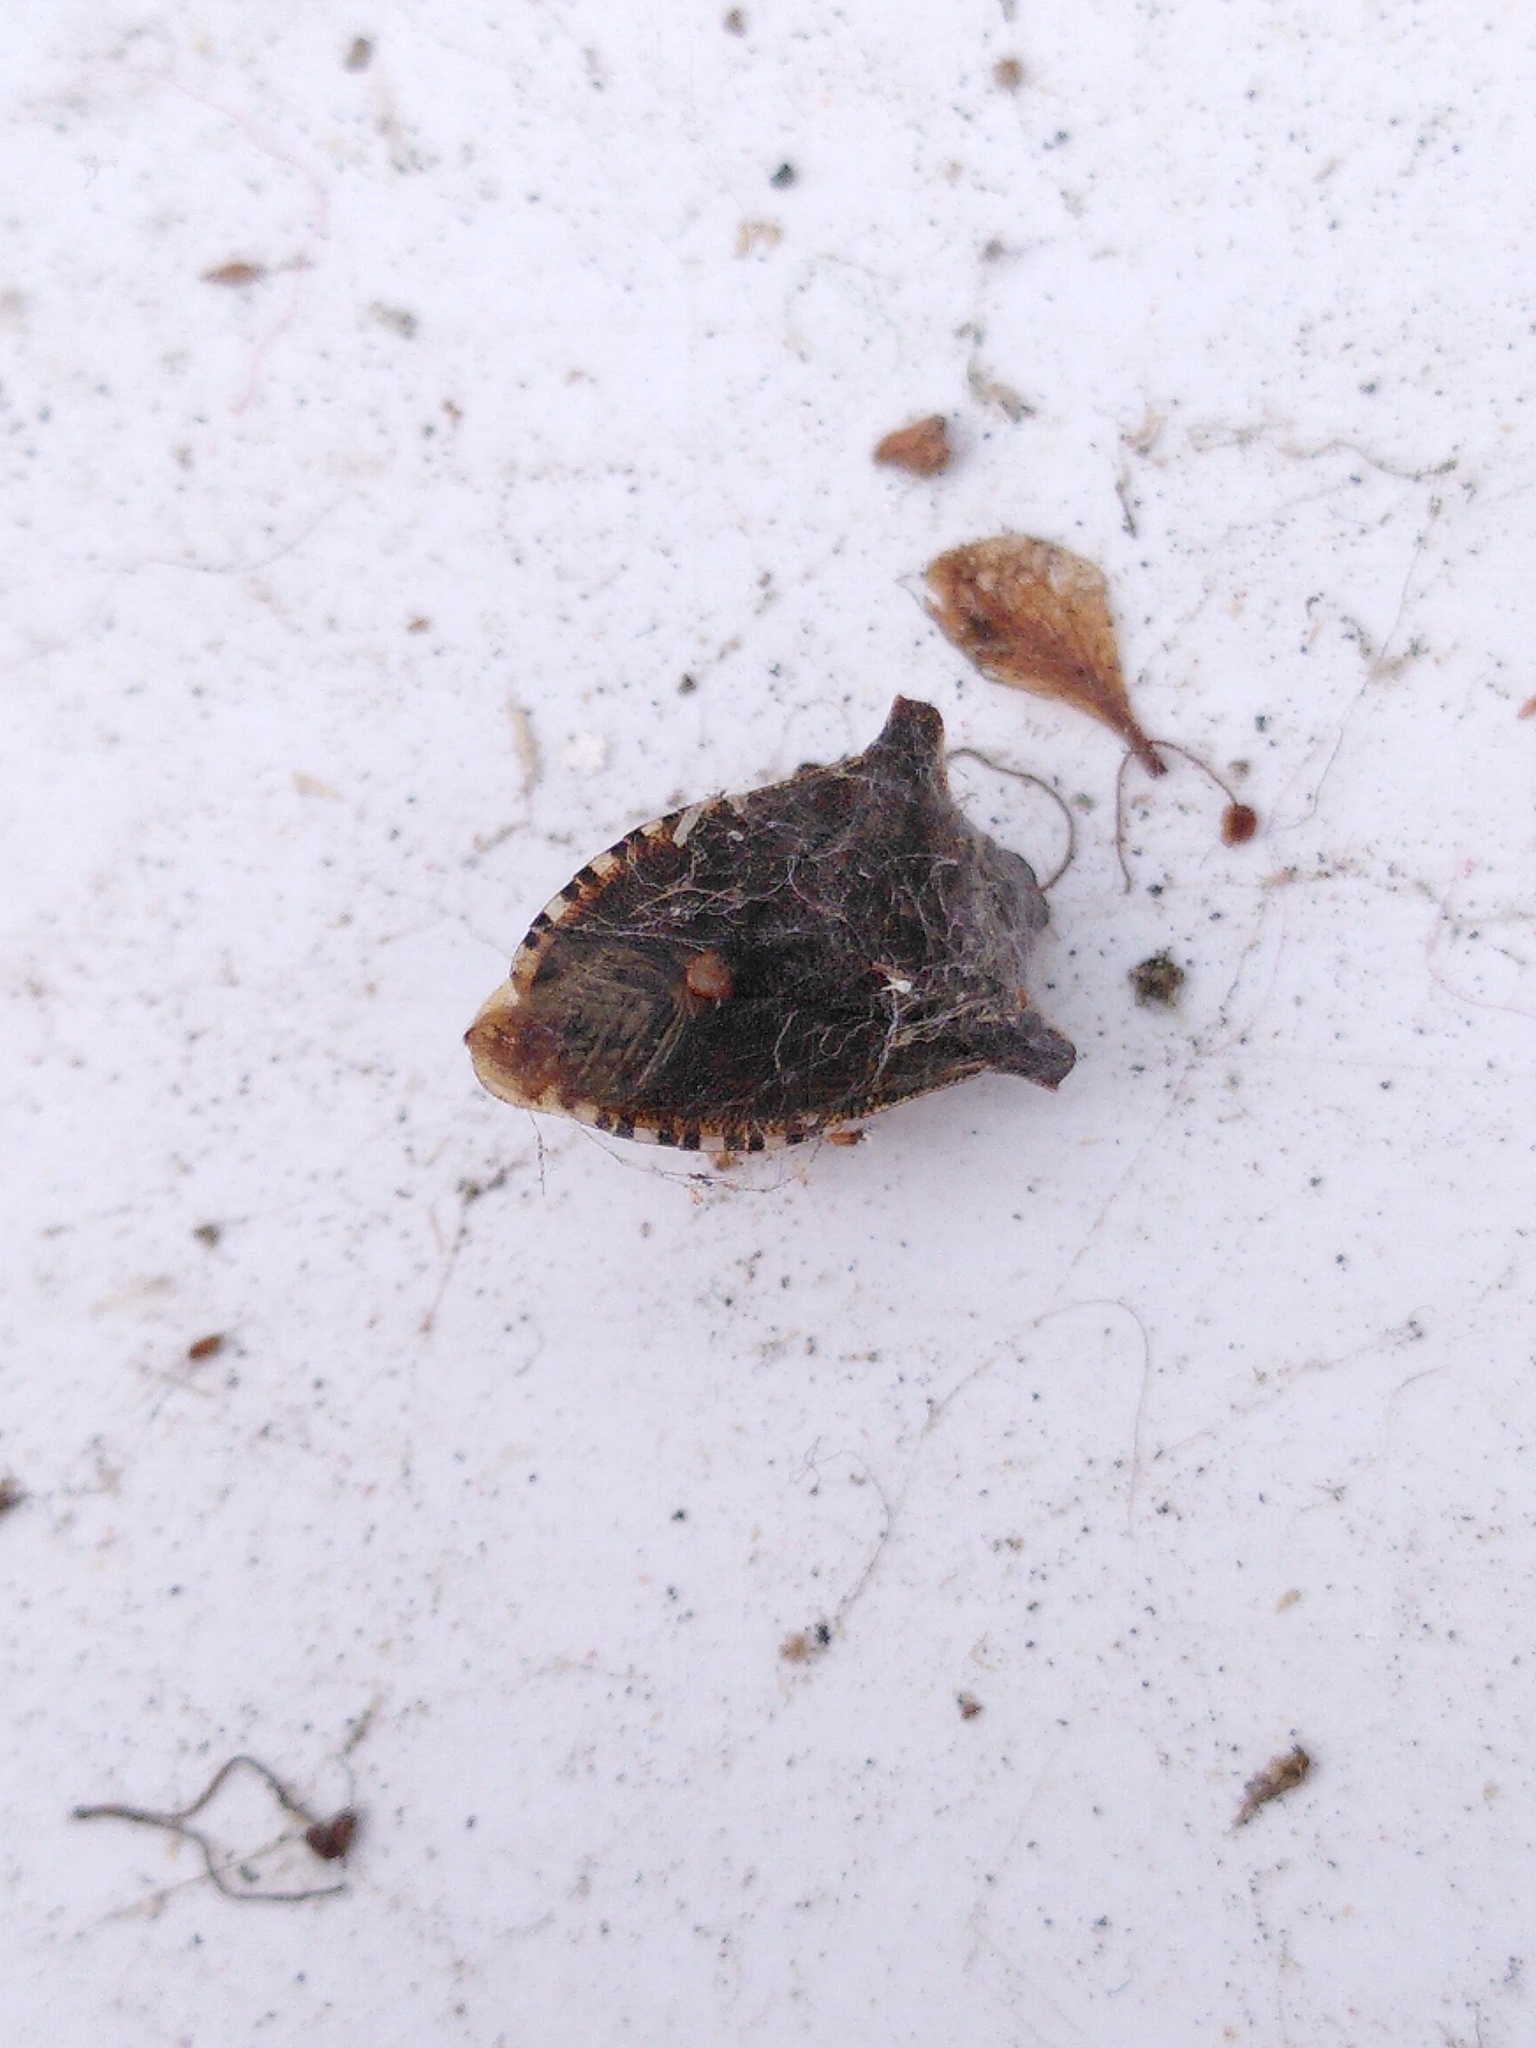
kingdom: Animalia
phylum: Arthropoda
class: Insecta
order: Hemiptera
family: Pentatomidae
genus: Pentatoma
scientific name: Pentatoma rufipes
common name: Forest bug
